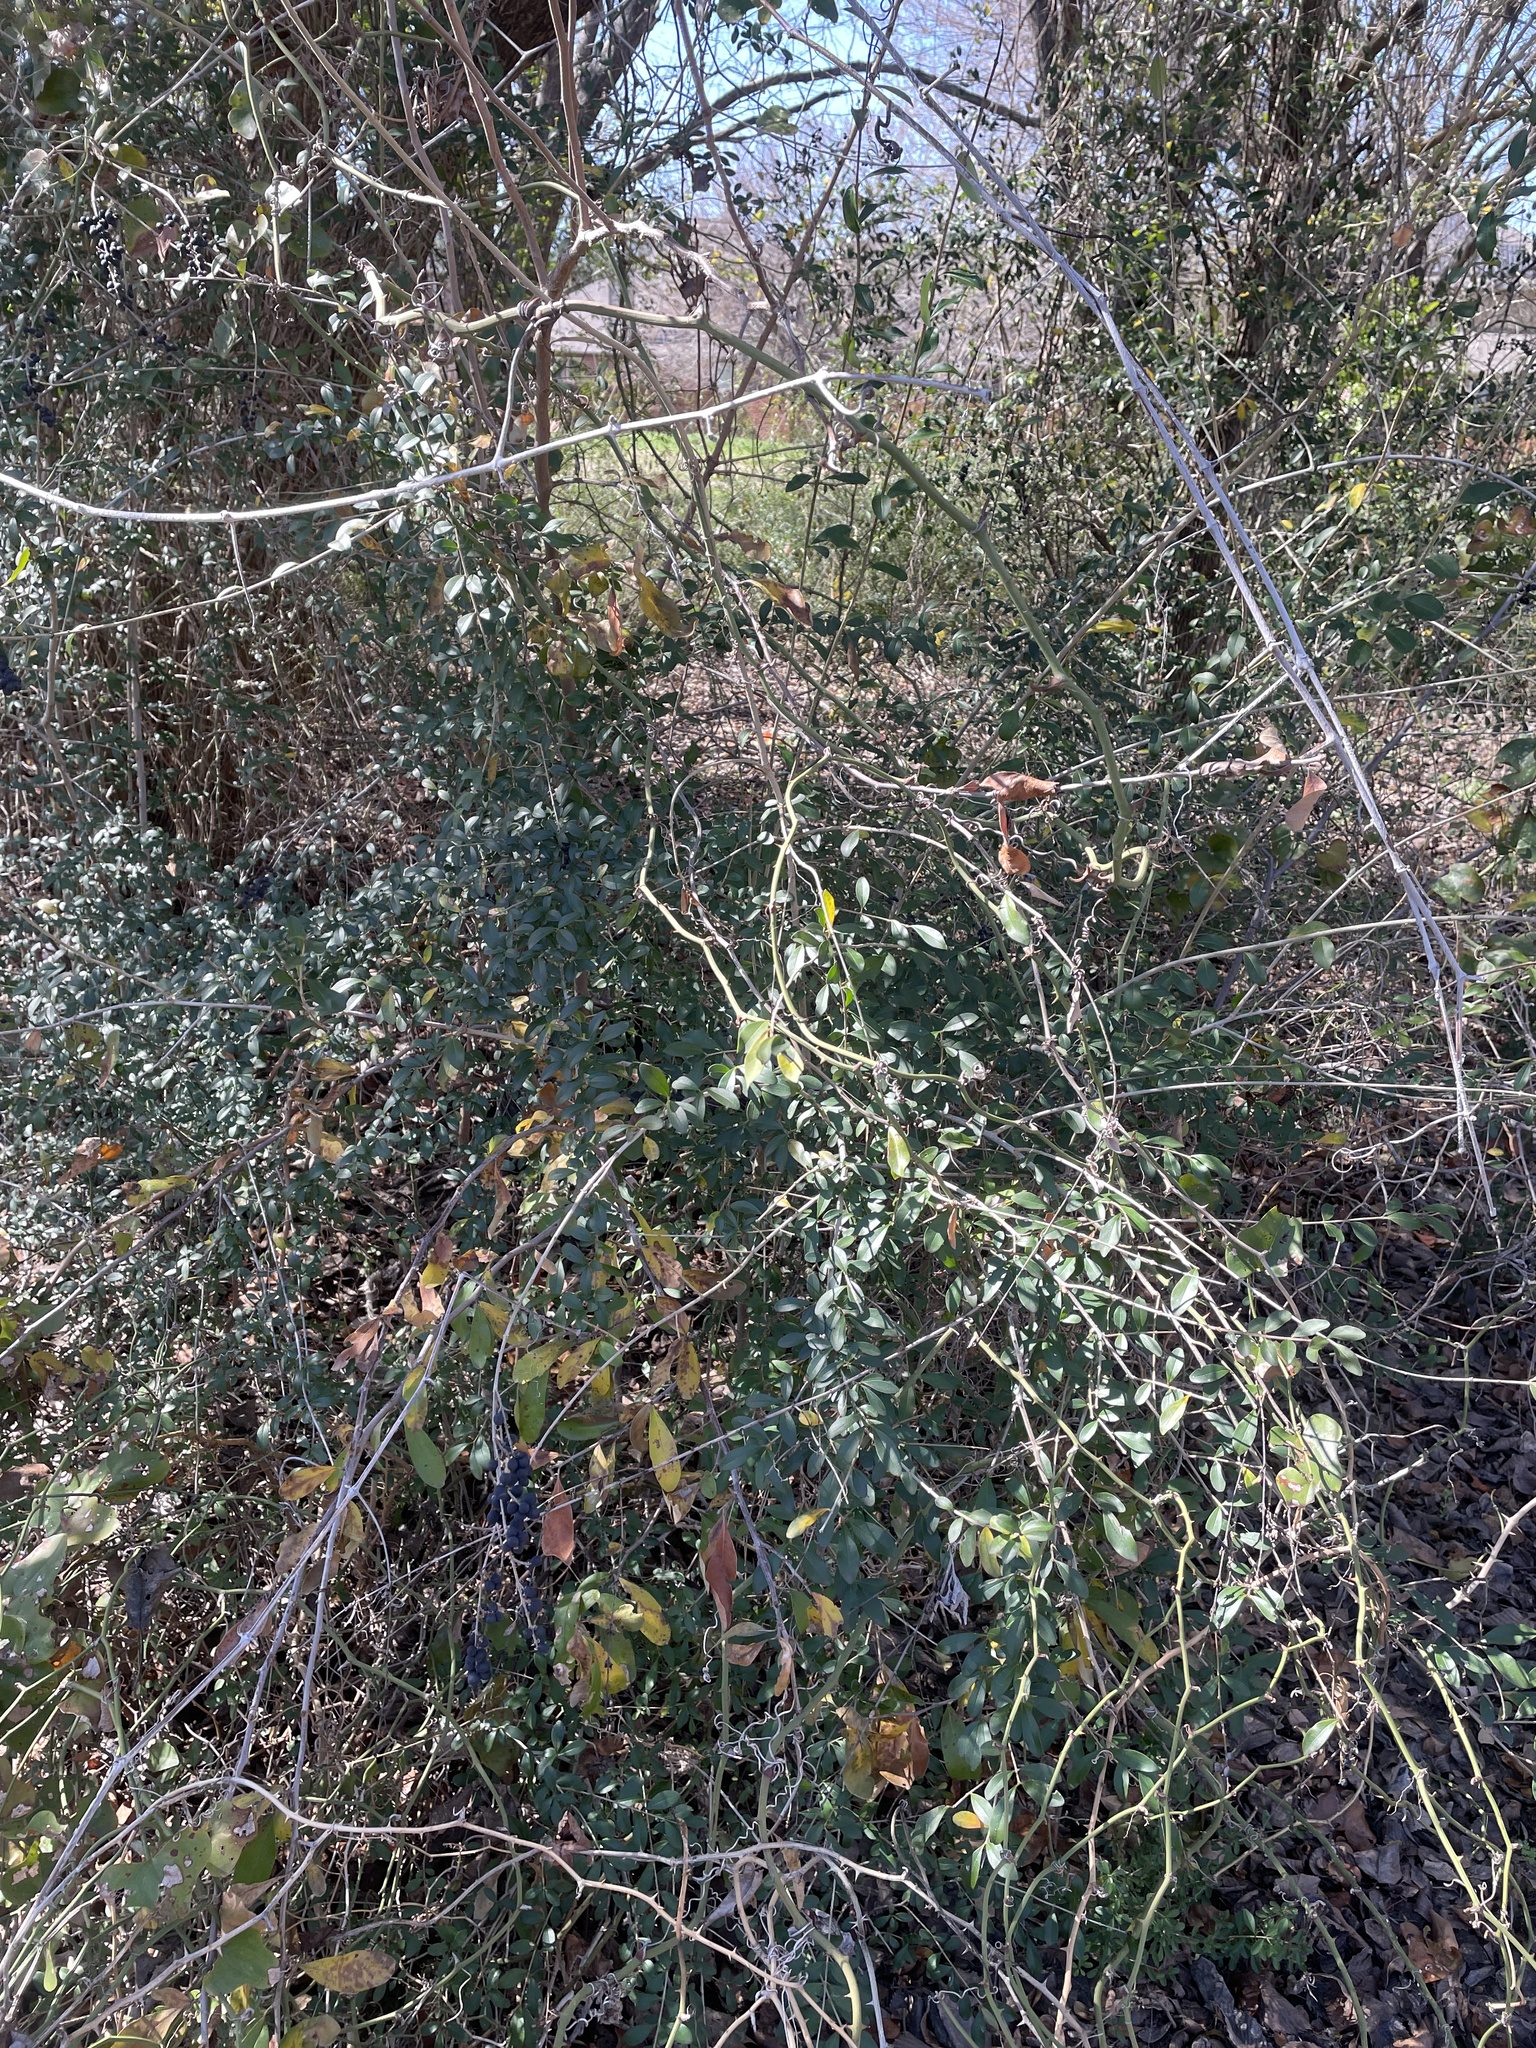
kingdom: Plantae
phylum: Tracheophyta
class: Magnoliopsida
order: Lamiales
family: Oleaceae
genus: Ligustrum
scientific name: Ligustrum quihoui
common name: Waxyleaf privet
